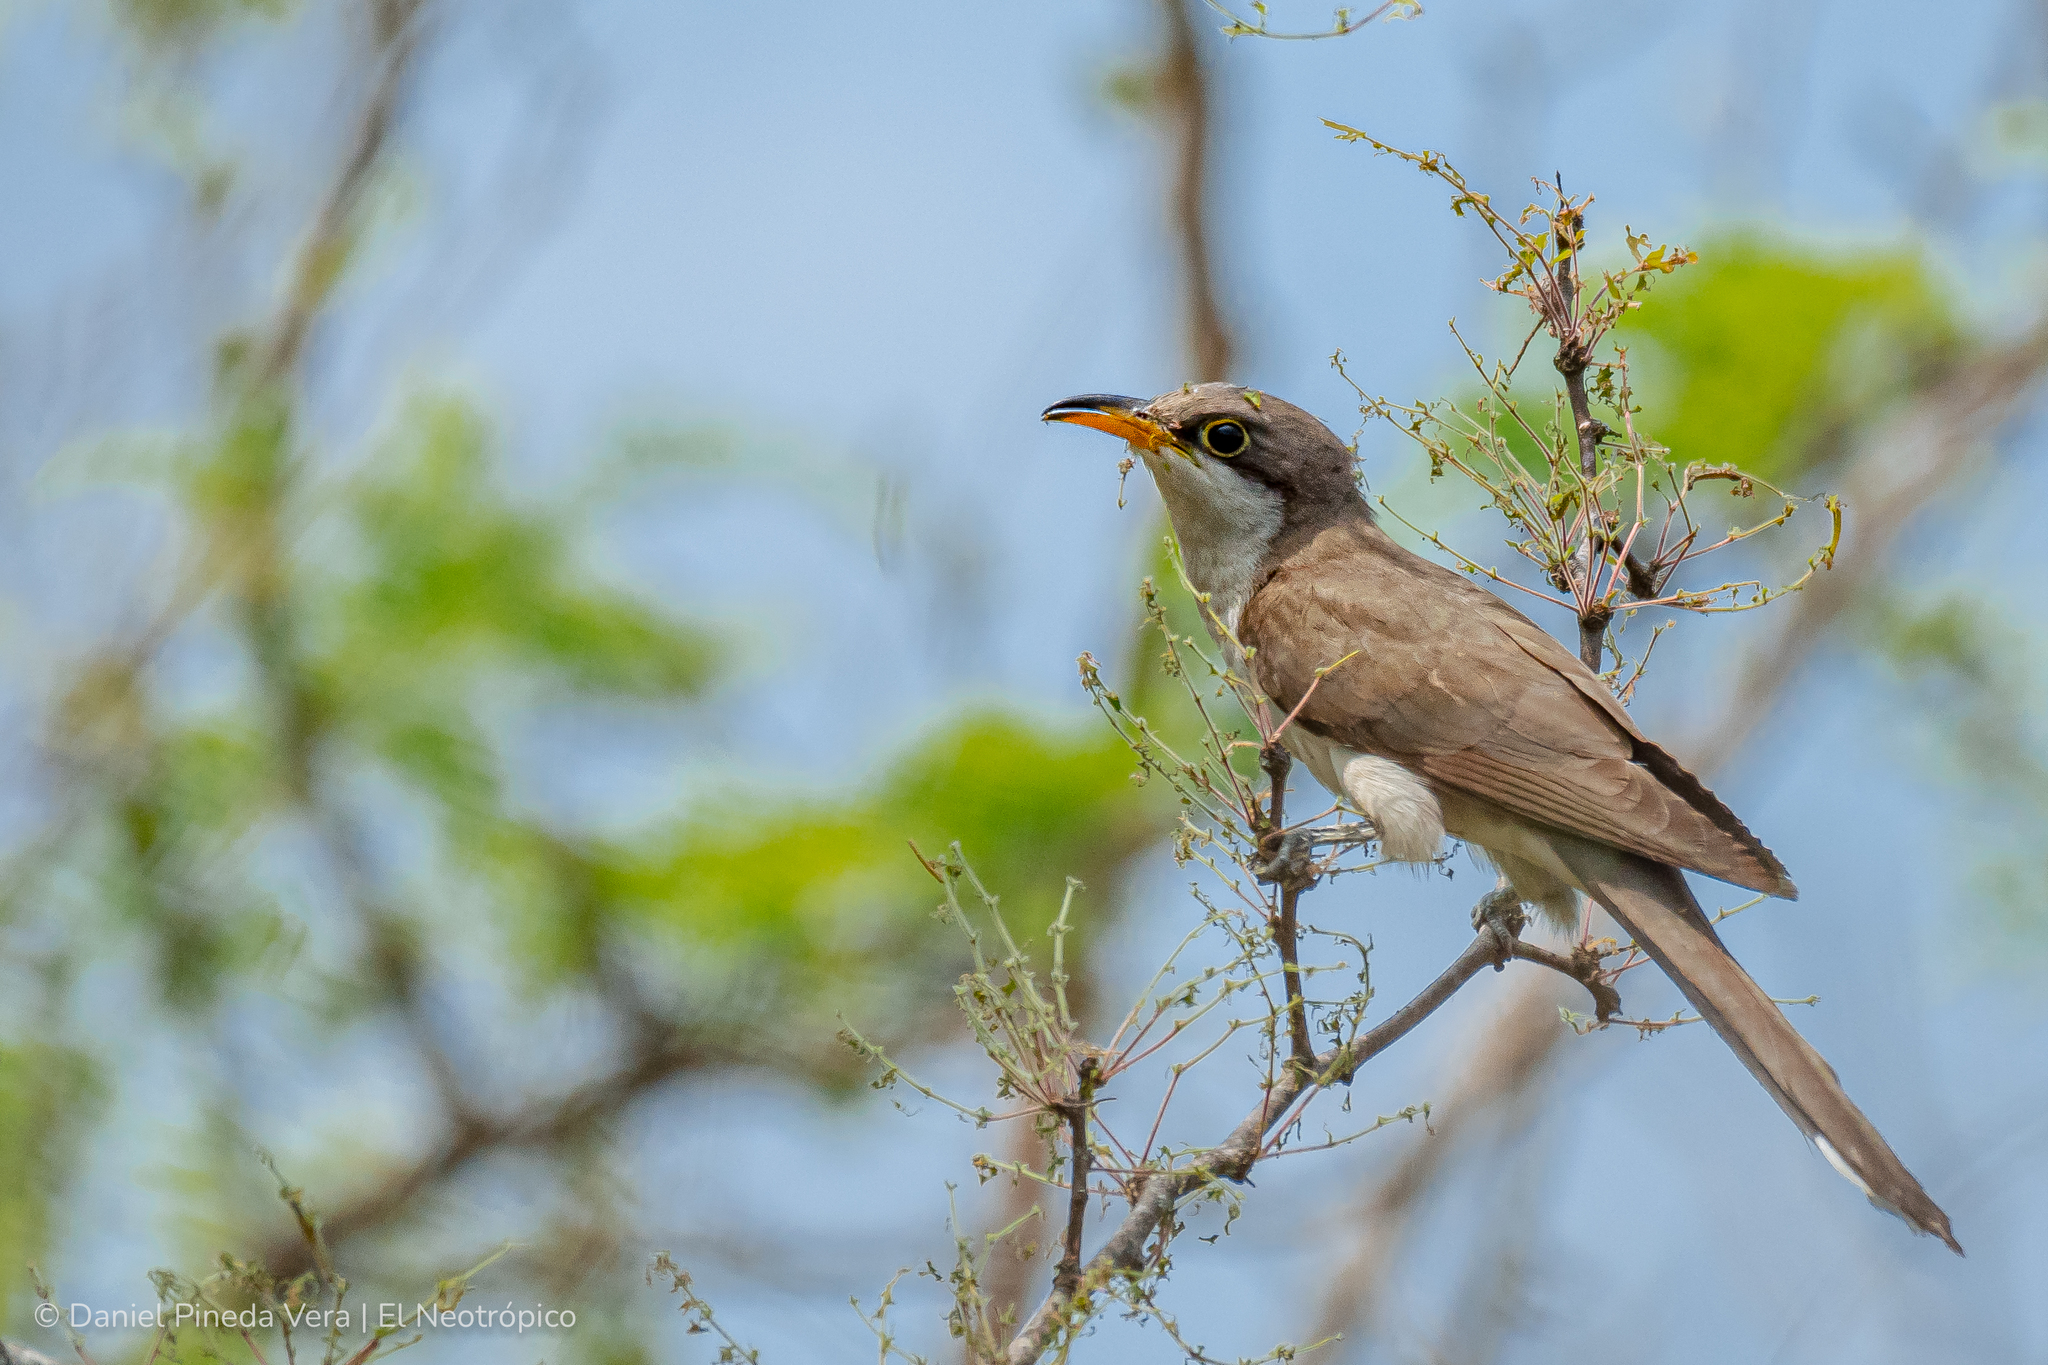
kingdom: Animalia
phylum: Chordata
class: Aves
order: Cuculiformes
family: Cuculidae
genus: Coccyzus
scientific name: Coccyzus americanus
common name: Yellow-billed cuckoo
